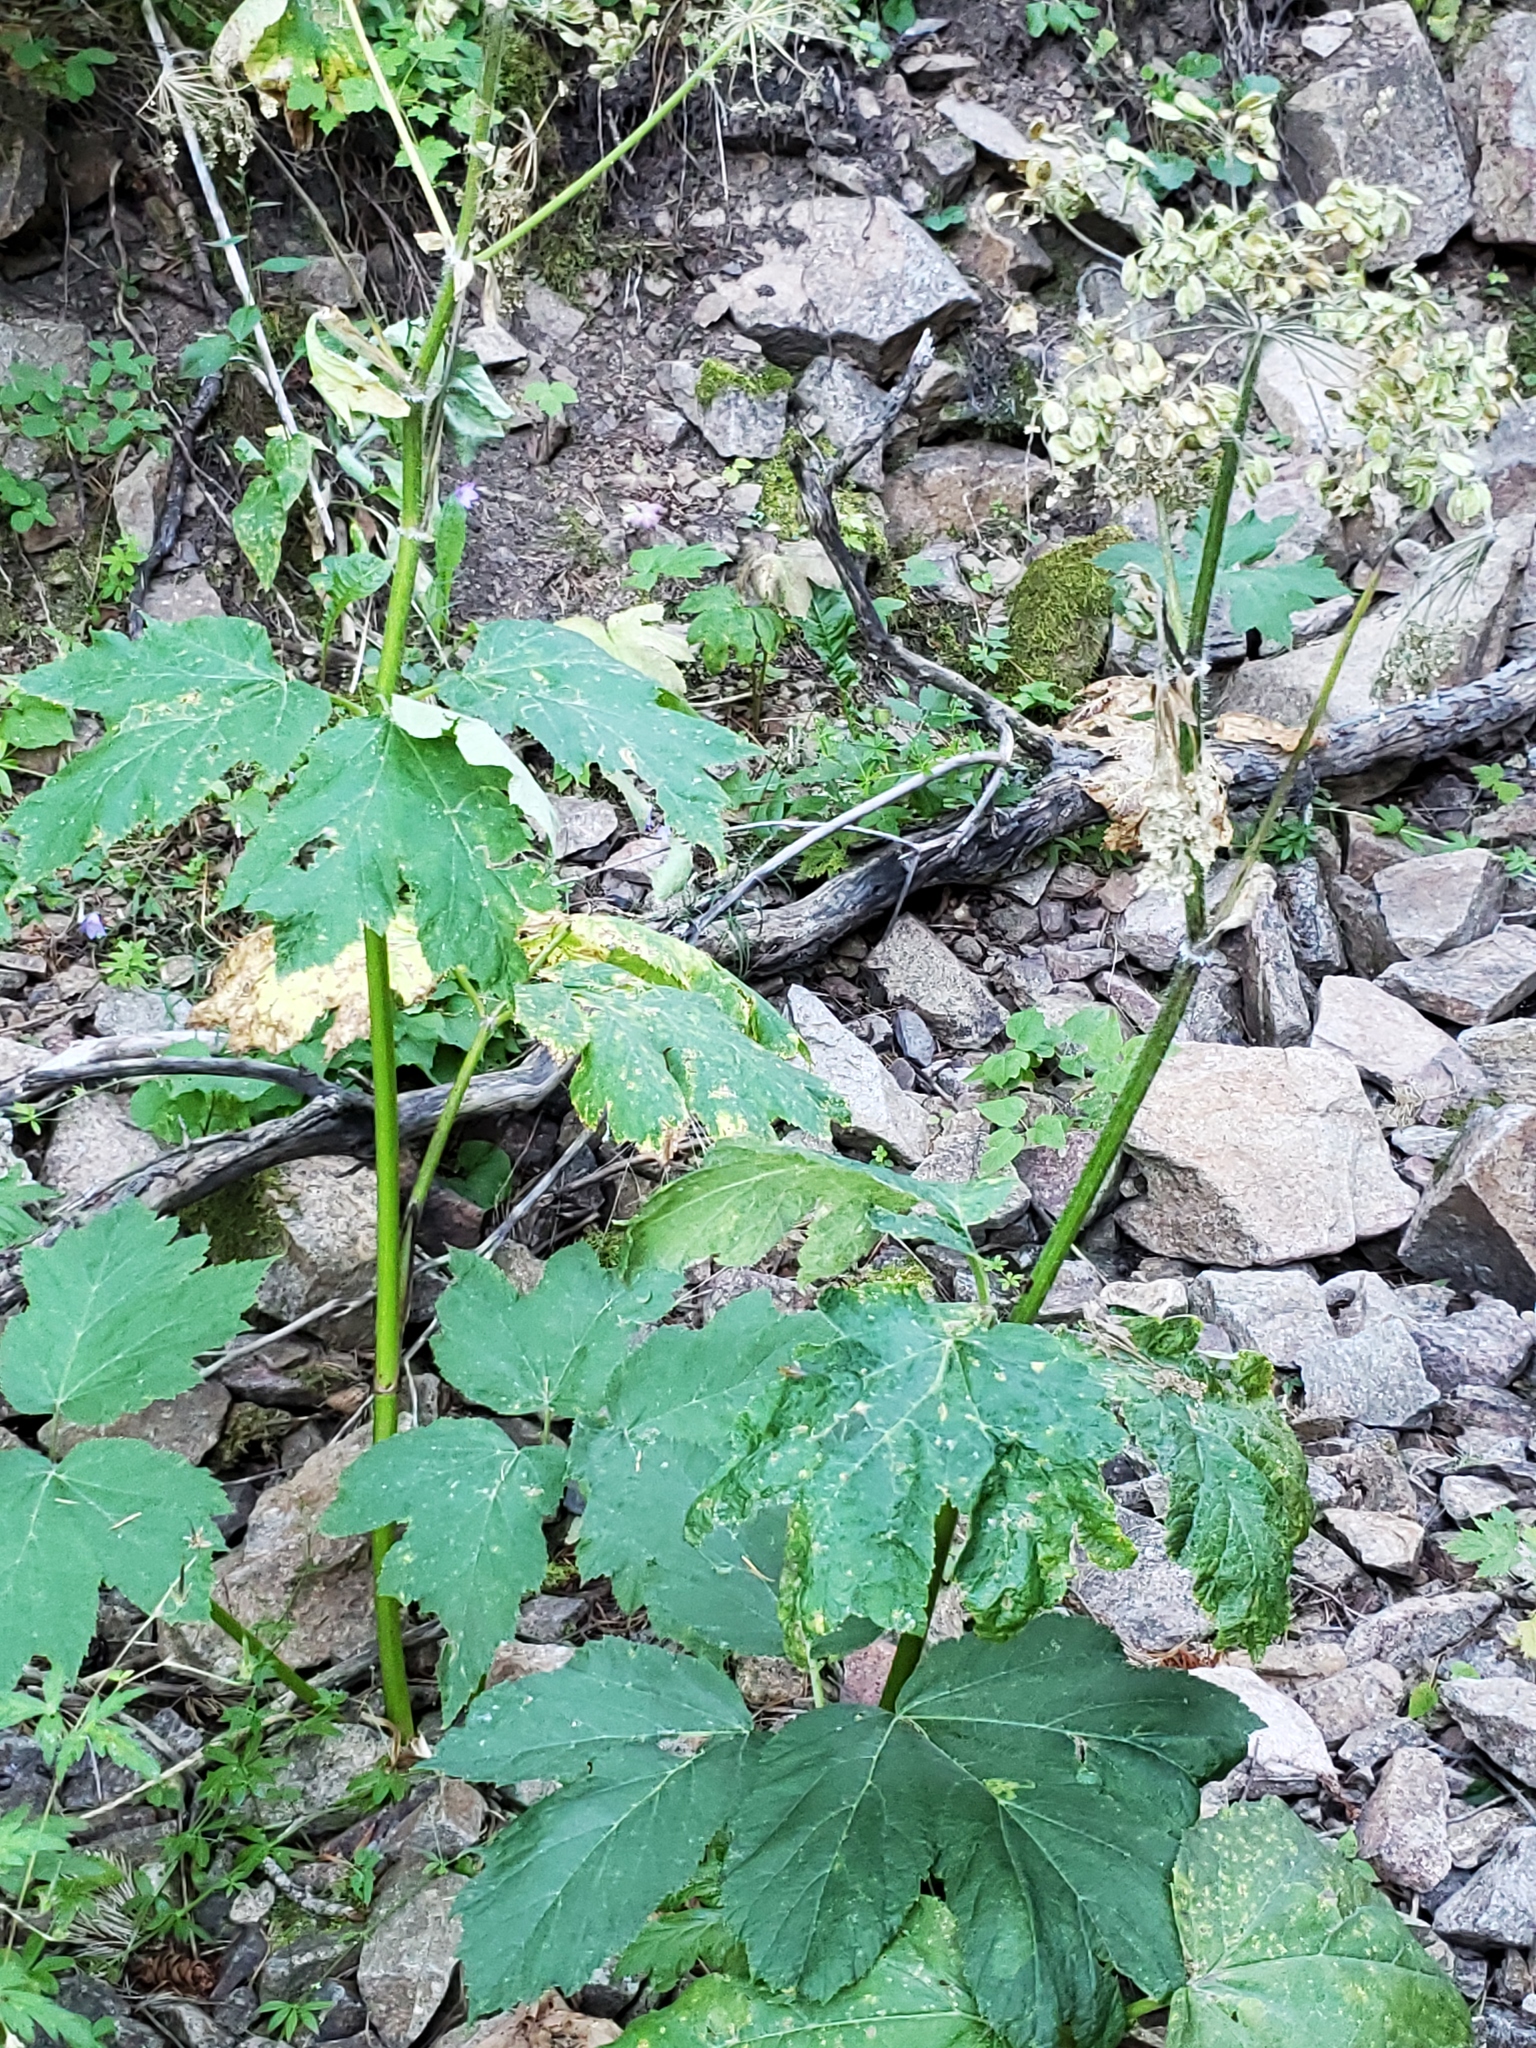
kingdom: Plantae
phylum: Tracheophyta
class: Magnoliopsida
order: Apiales
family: Apiaceae
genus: Heracleum
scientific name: Heracleum maximum
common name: American cow parsnip
